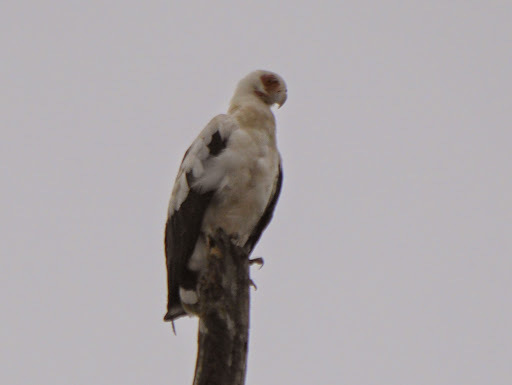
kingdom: Animalia
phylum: Chordata
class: Aves
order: Accipitriformes
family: Accipitridae
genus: Gypohierax
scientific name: Gypohierax angolensis
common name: Palm-nut vulture
